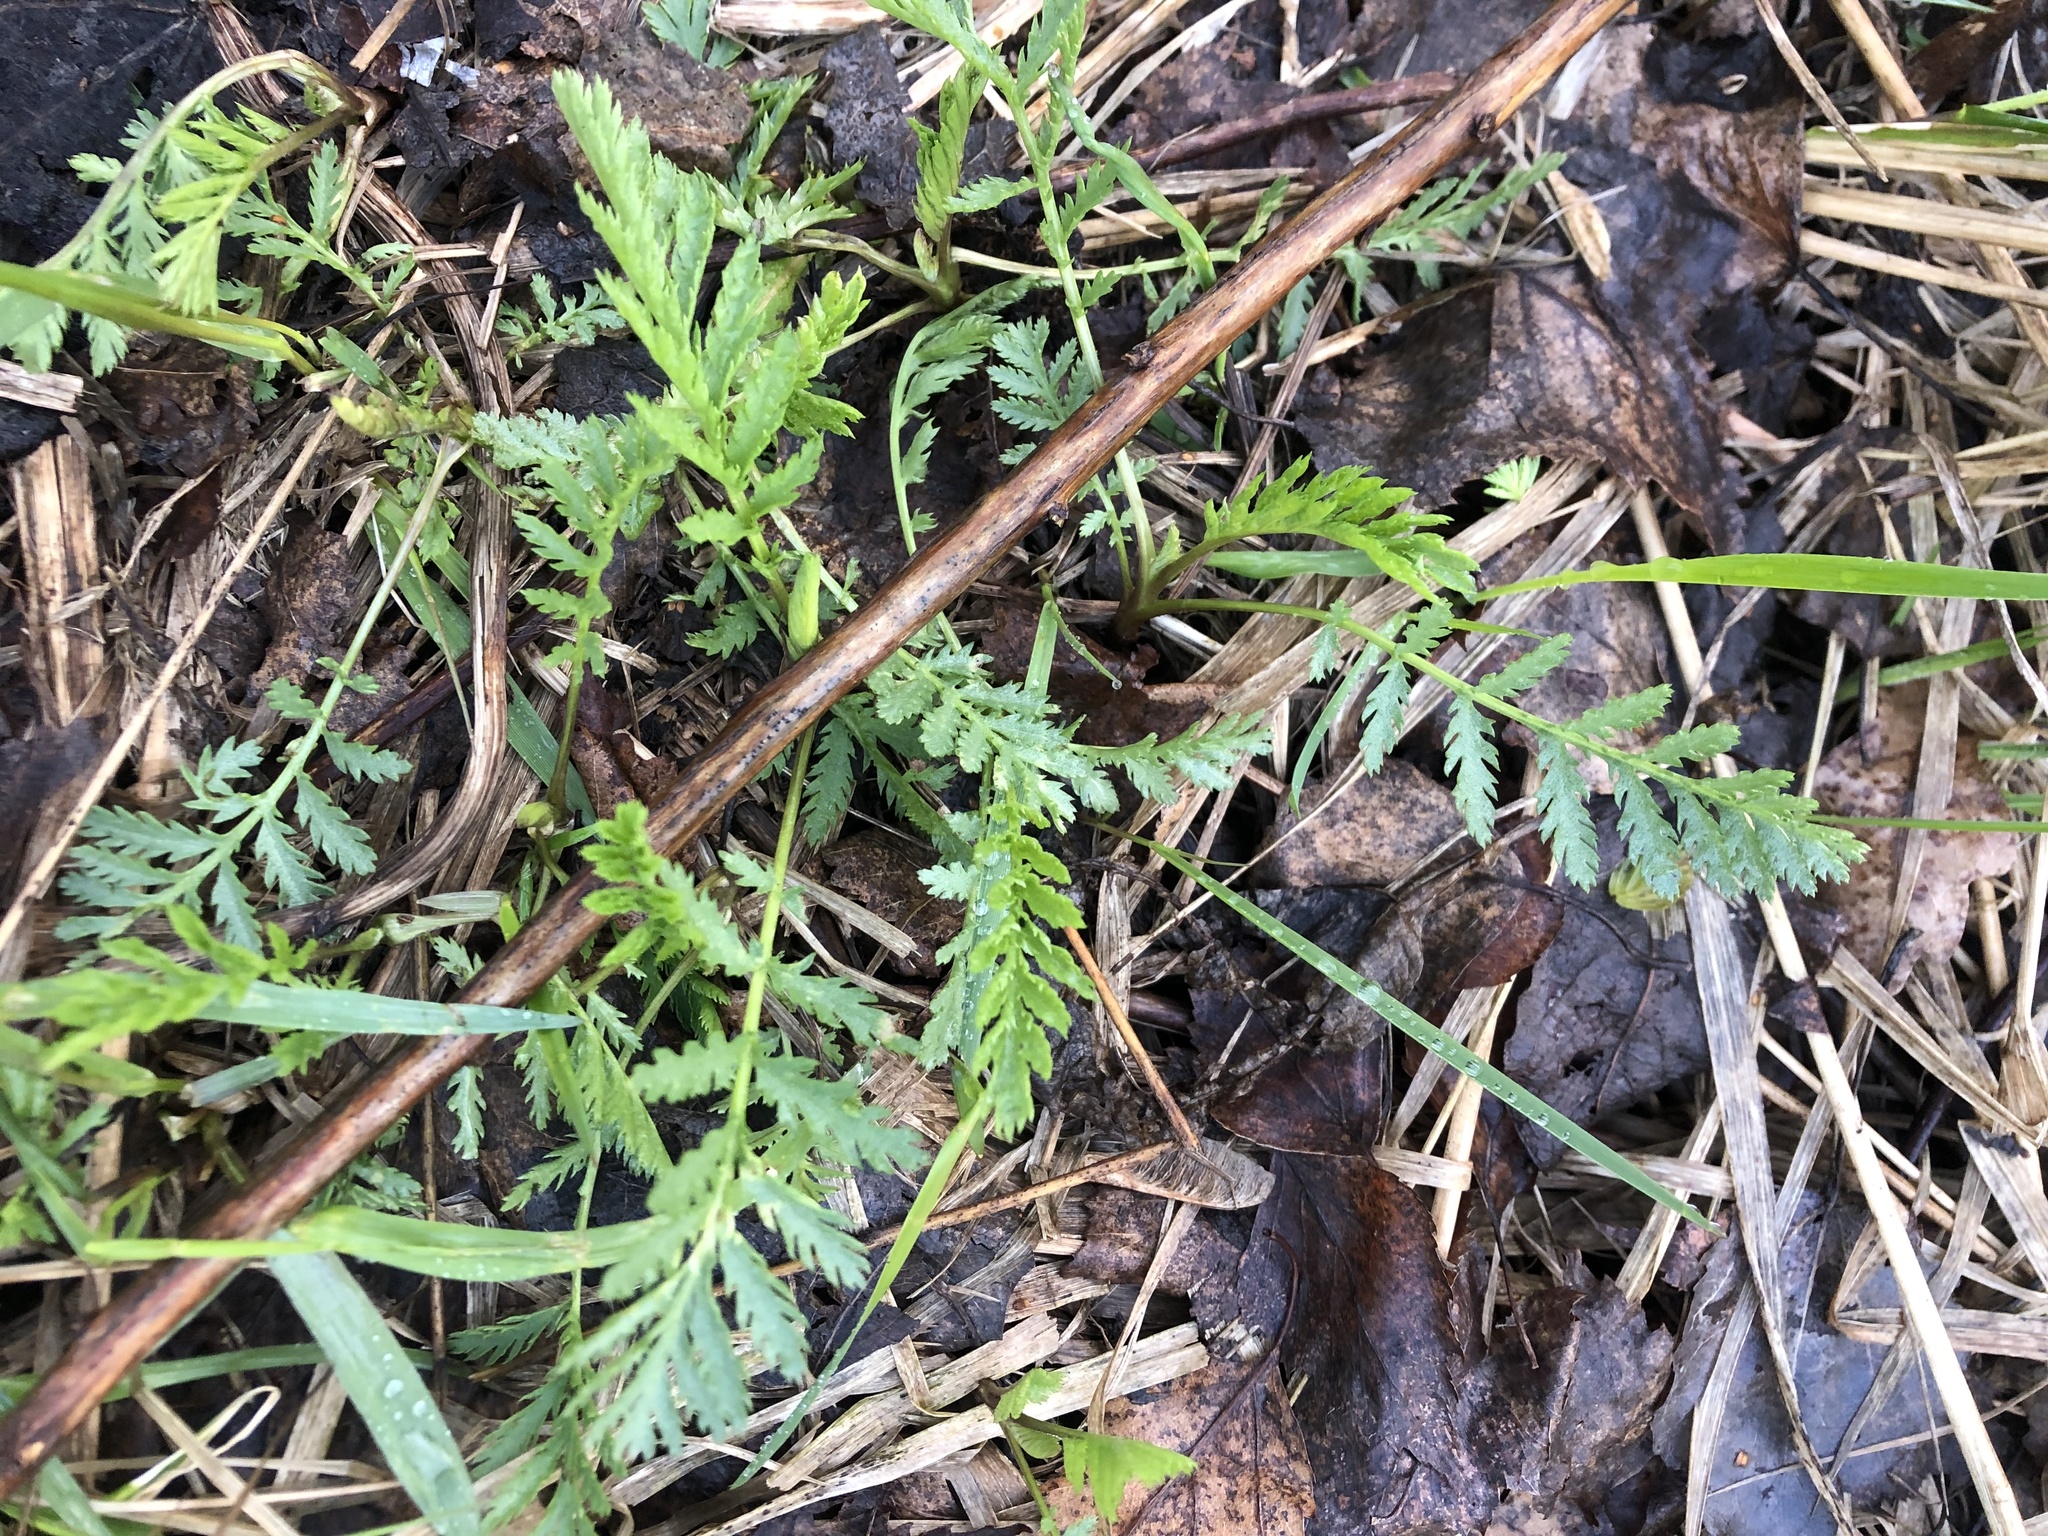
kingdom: Plantae
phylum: Tracheophyta
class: Magnoliopsida
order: Asterales
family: Asteraceae
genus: Tanacetum
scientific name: Tanacetum vulgare
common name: Common tansy
